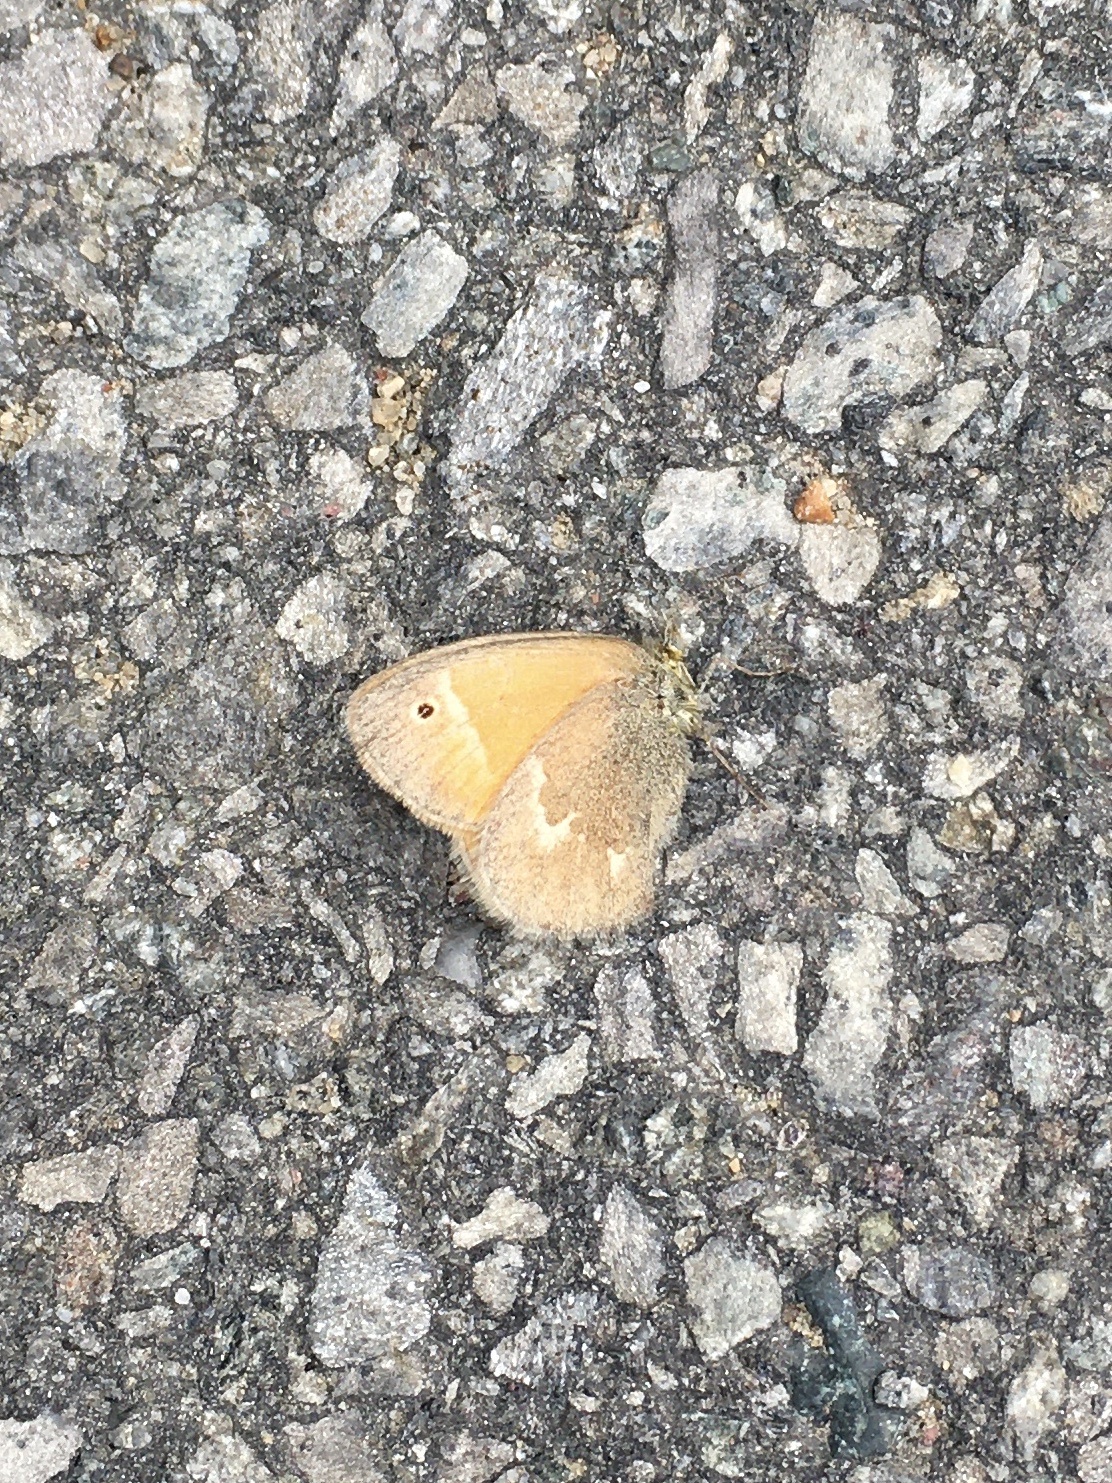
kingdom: Animalia
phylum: Arthropoda
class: Insecta
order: Lepidoptera
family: Nymphalidae
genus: Coenonympha
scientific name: Coenonympha california
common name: Common ringlet
